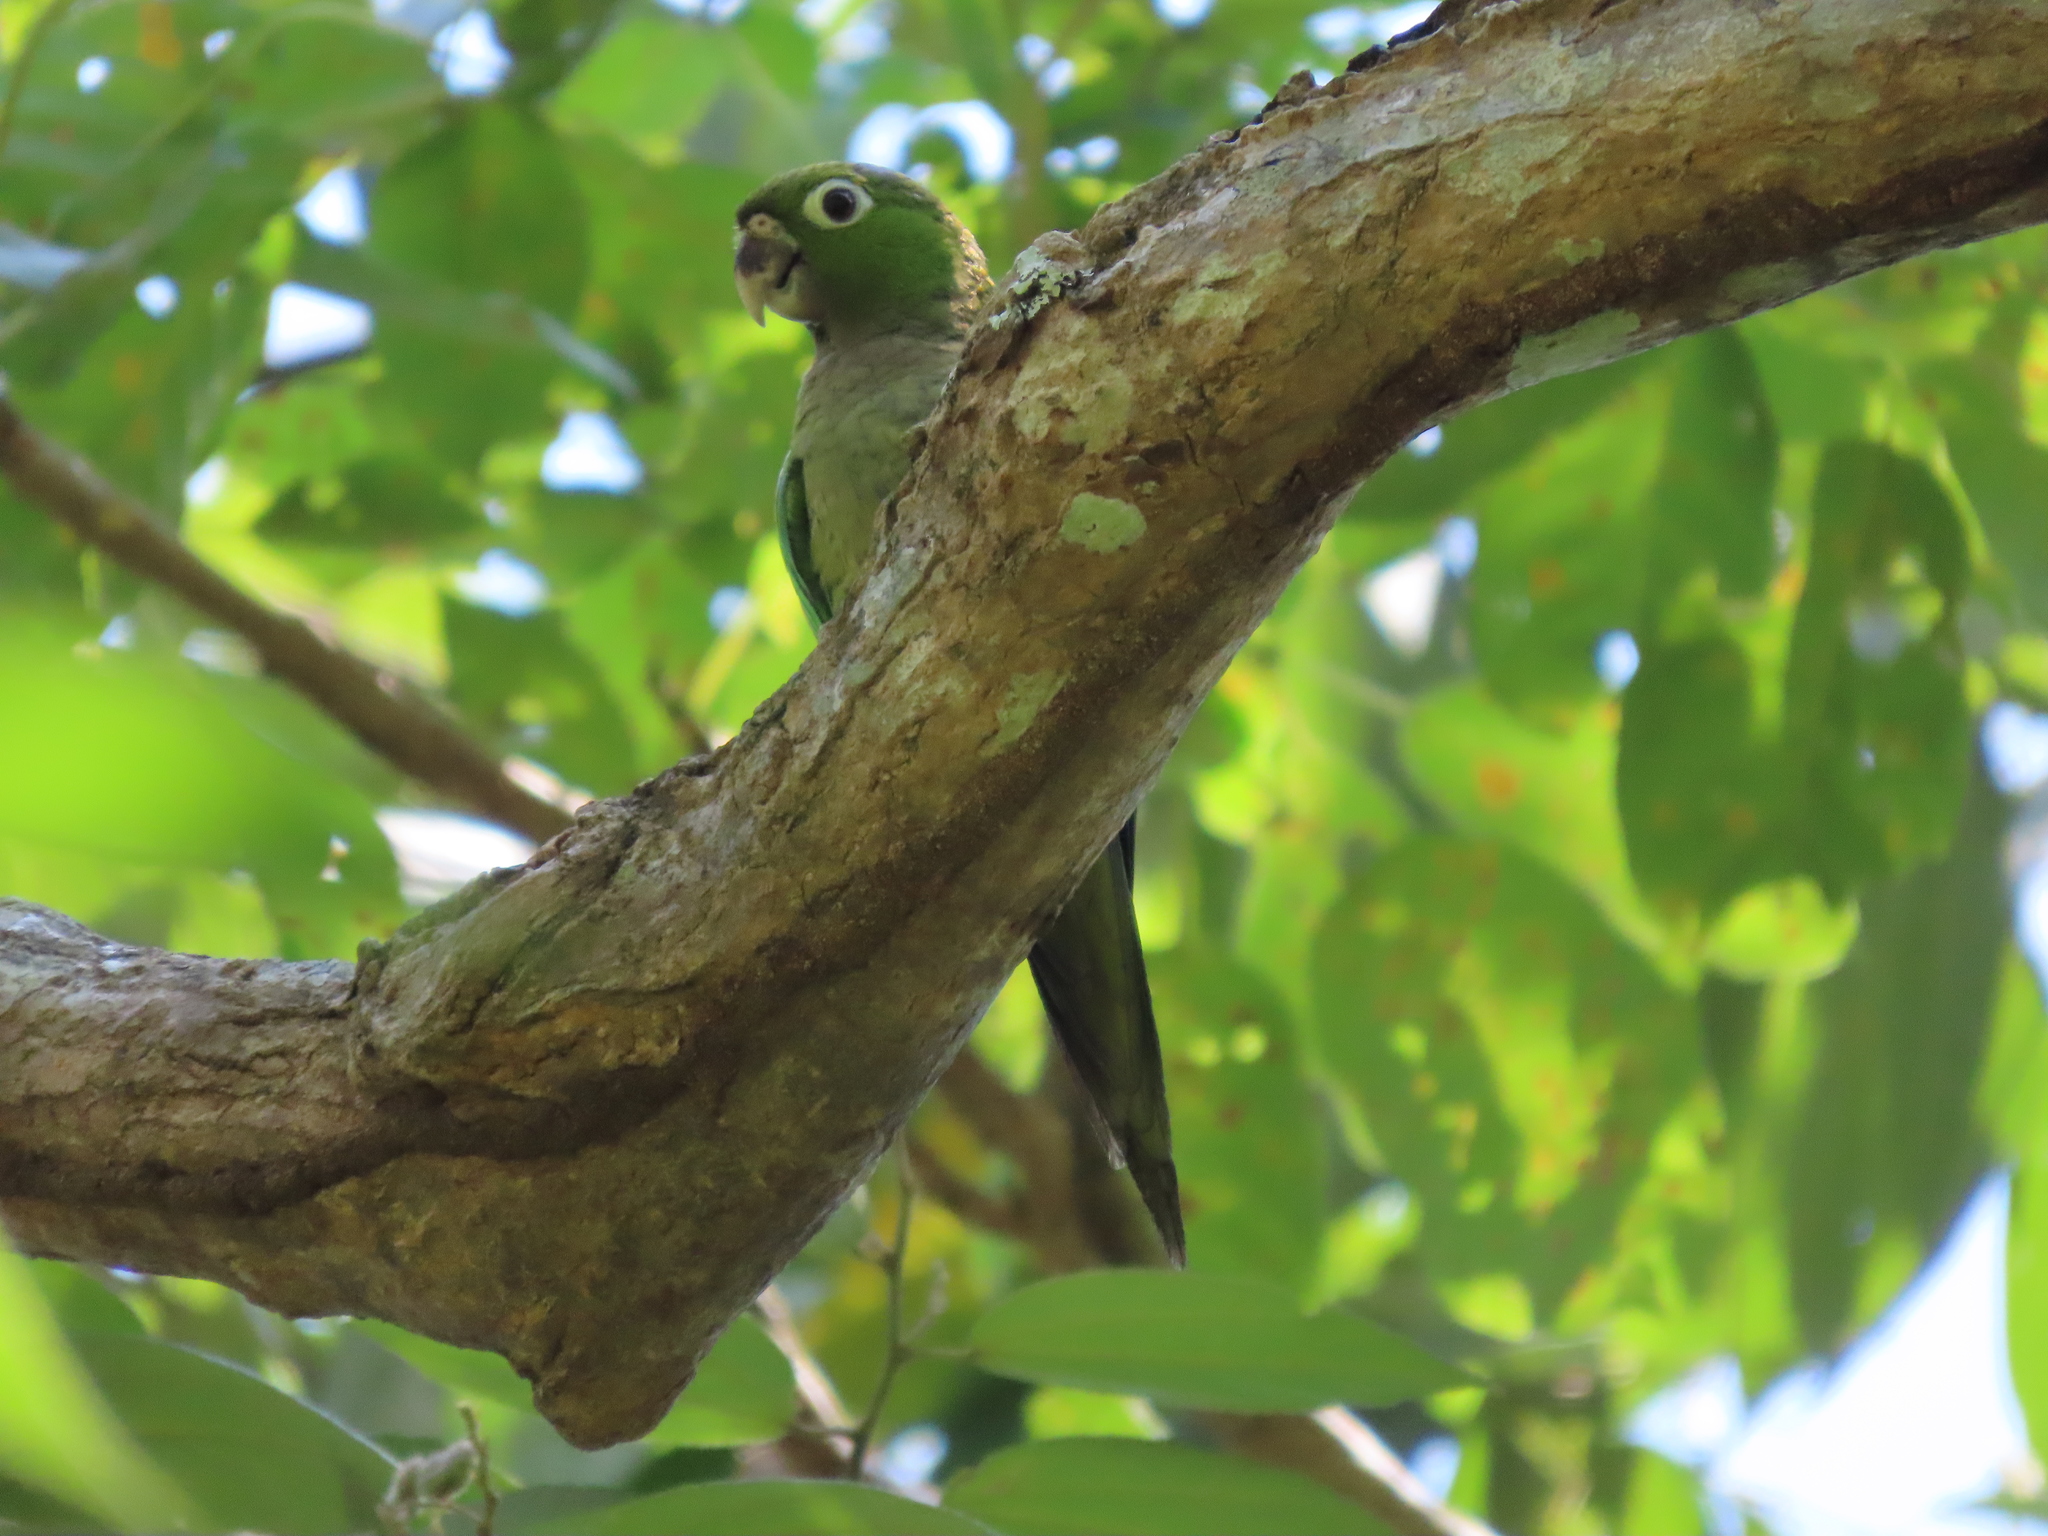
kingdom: Animalia
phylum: Chordata
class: Aves
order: Psittaciformes
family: Psittacidae
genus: Aratinga
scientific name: Aratinga nana
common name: Olive-throated parakeet
